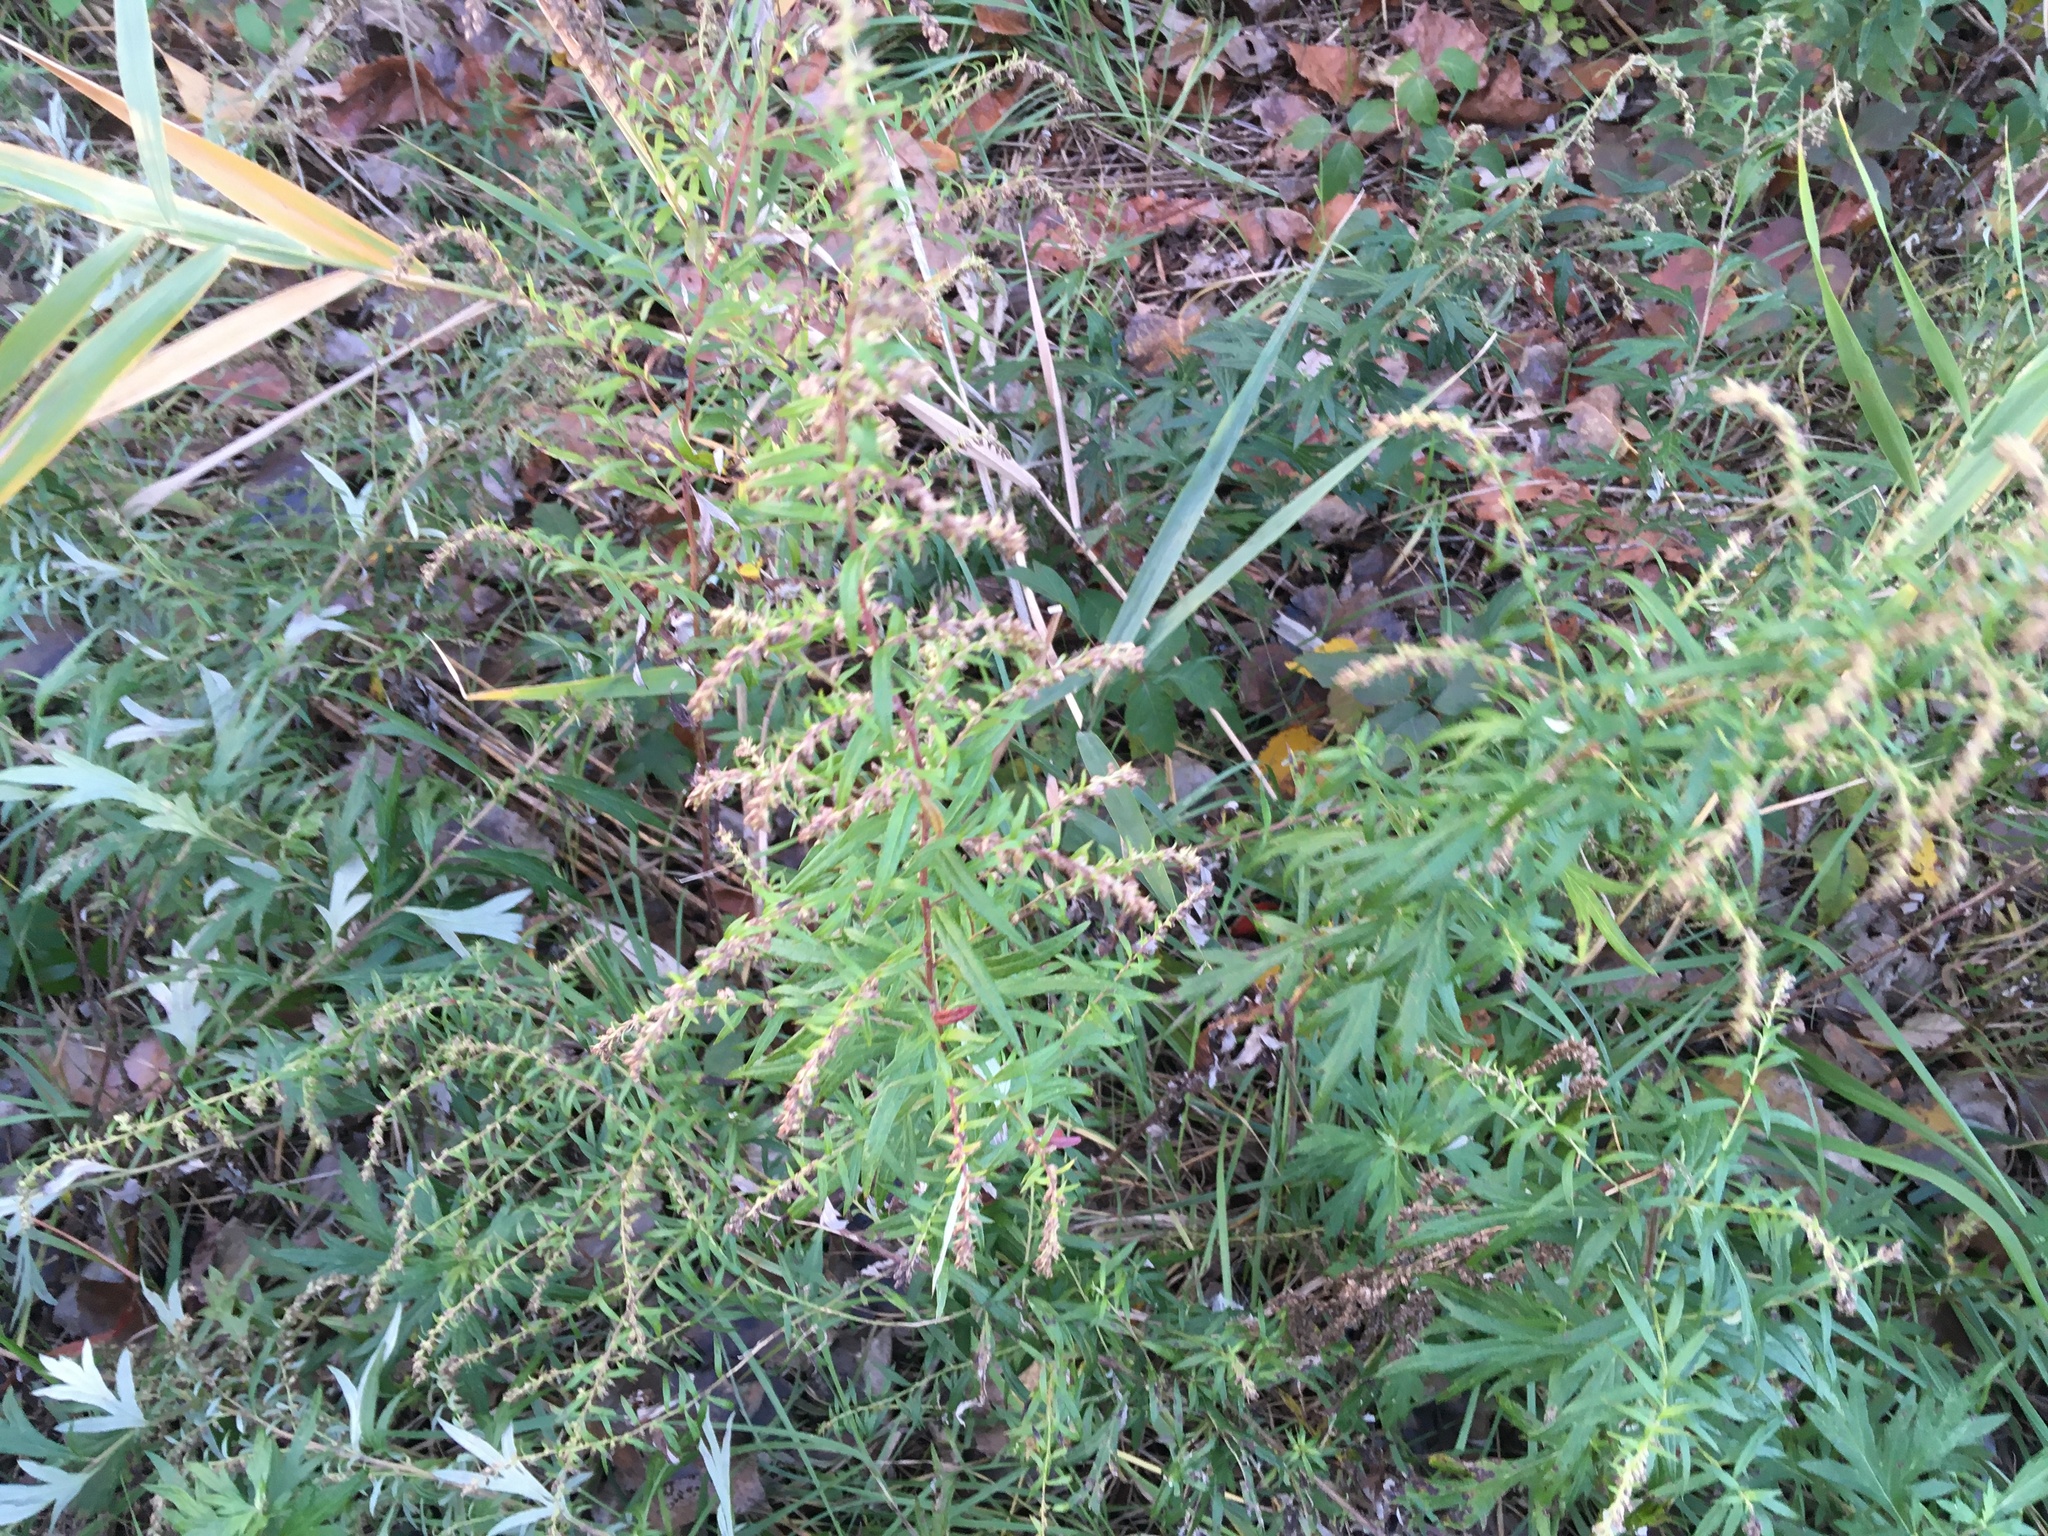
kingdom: Plantae
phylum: Tracheophyta
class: Magnoliopsida
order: Asterales
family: Asteraceae
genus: Artemisia
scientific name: Artemisia vulgaris
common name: Mugwort
